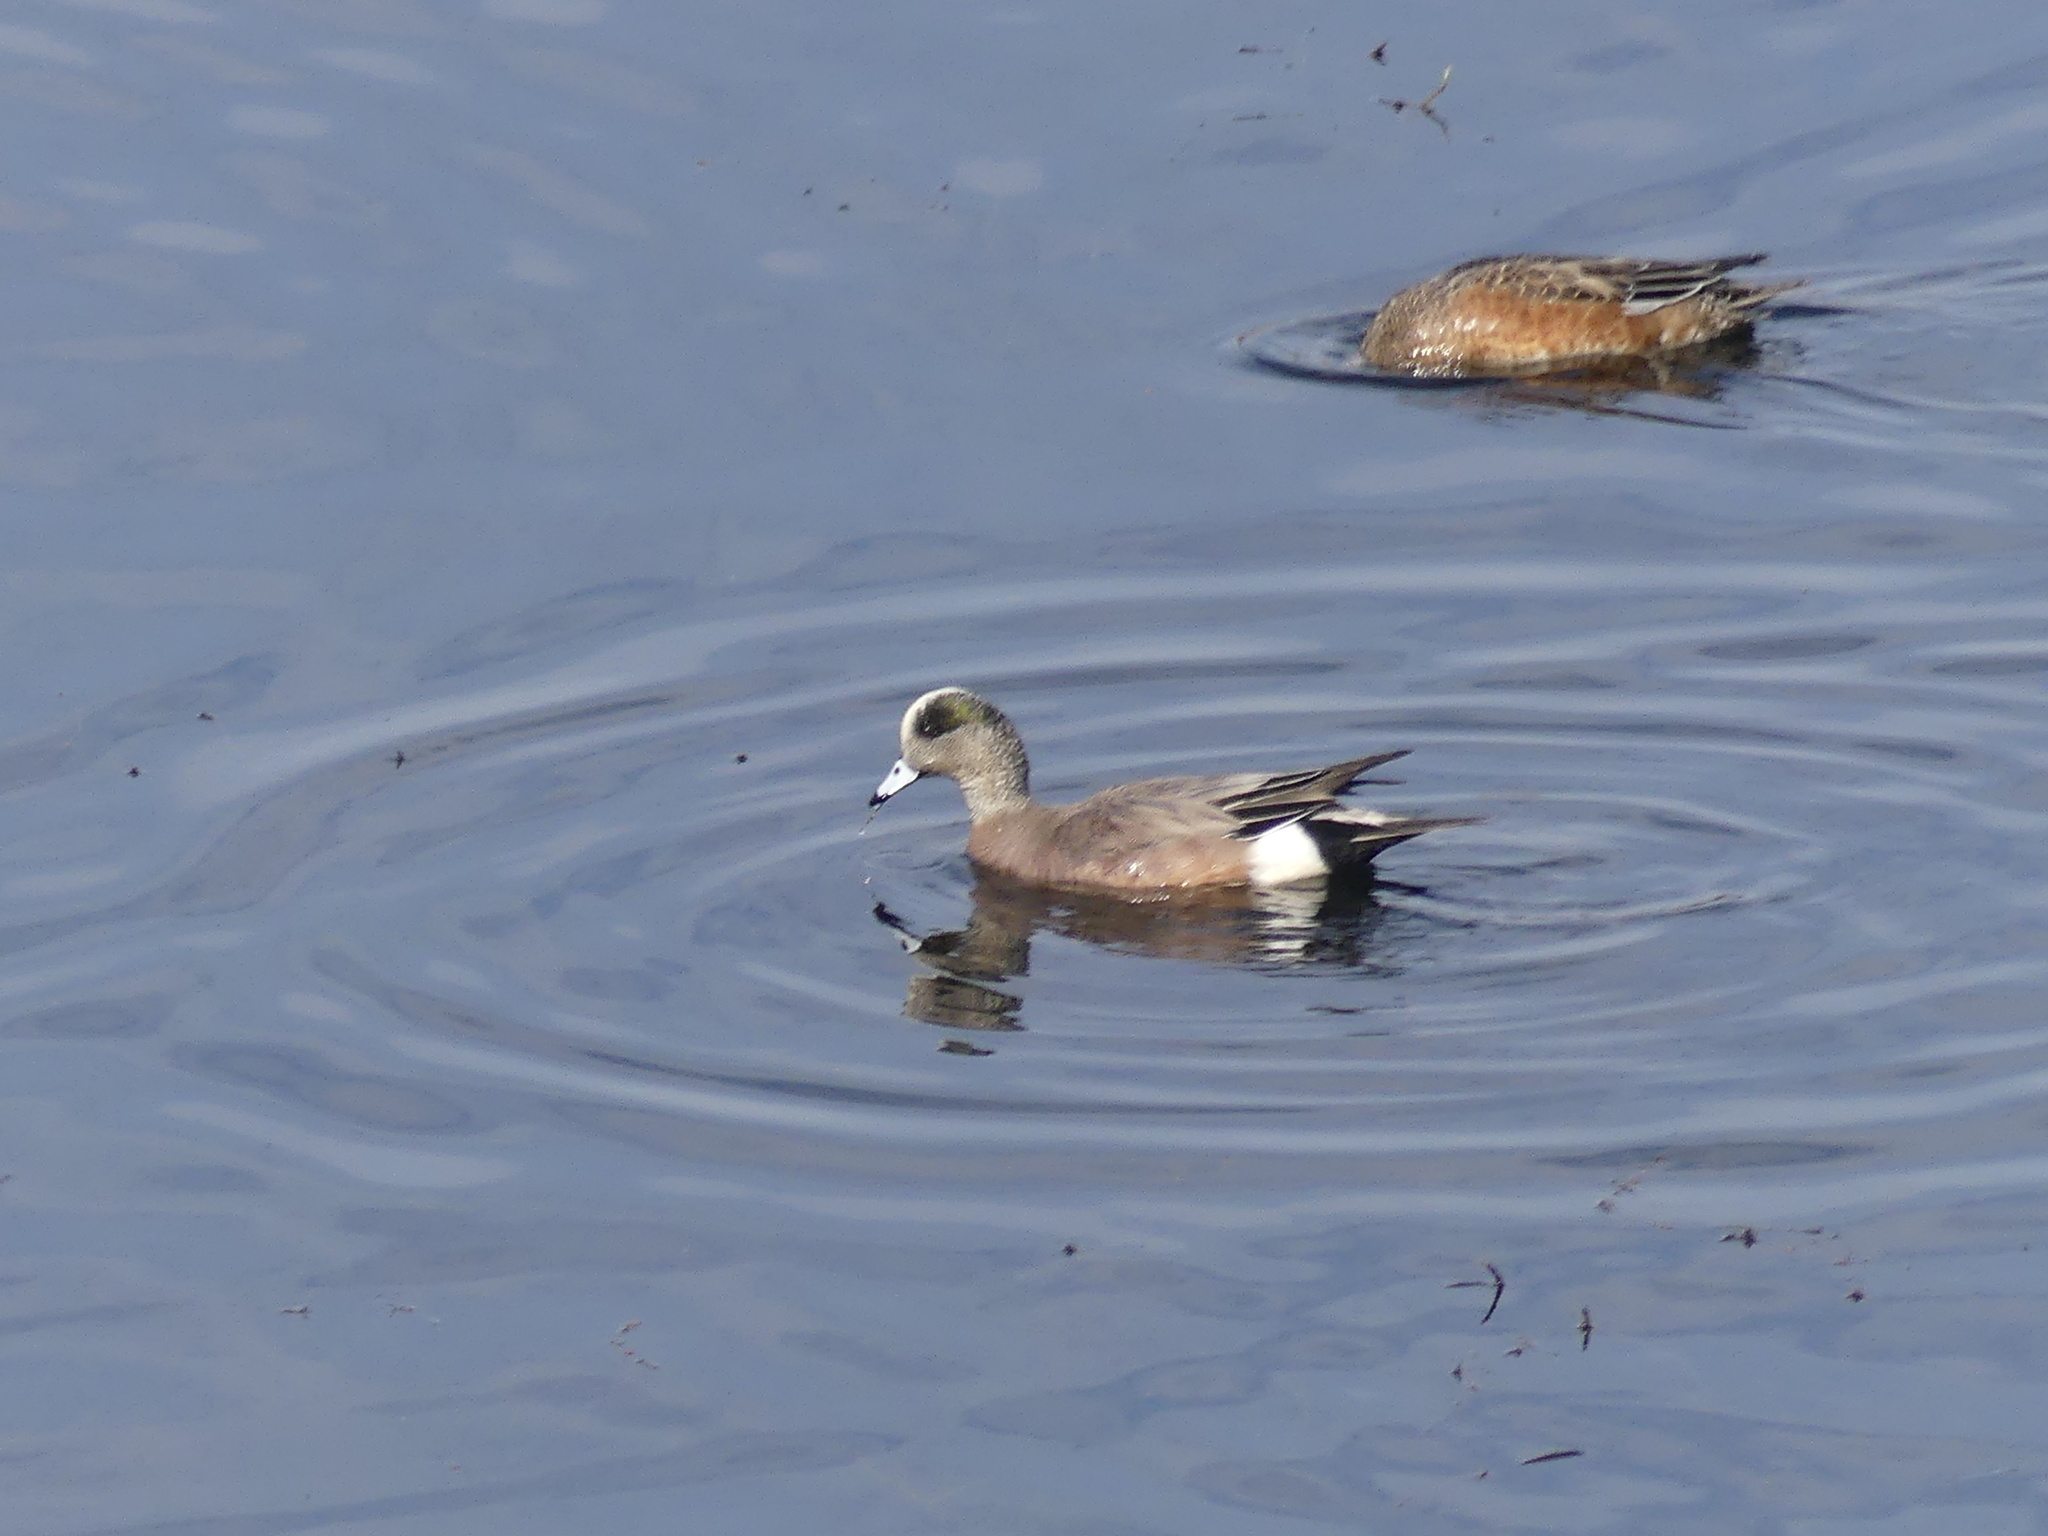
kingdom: Animalia
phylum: Chordata
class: Aves
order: Anseriformes
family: Anatidae
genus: Mareca
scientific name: Mareca americana
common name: American wigeon
